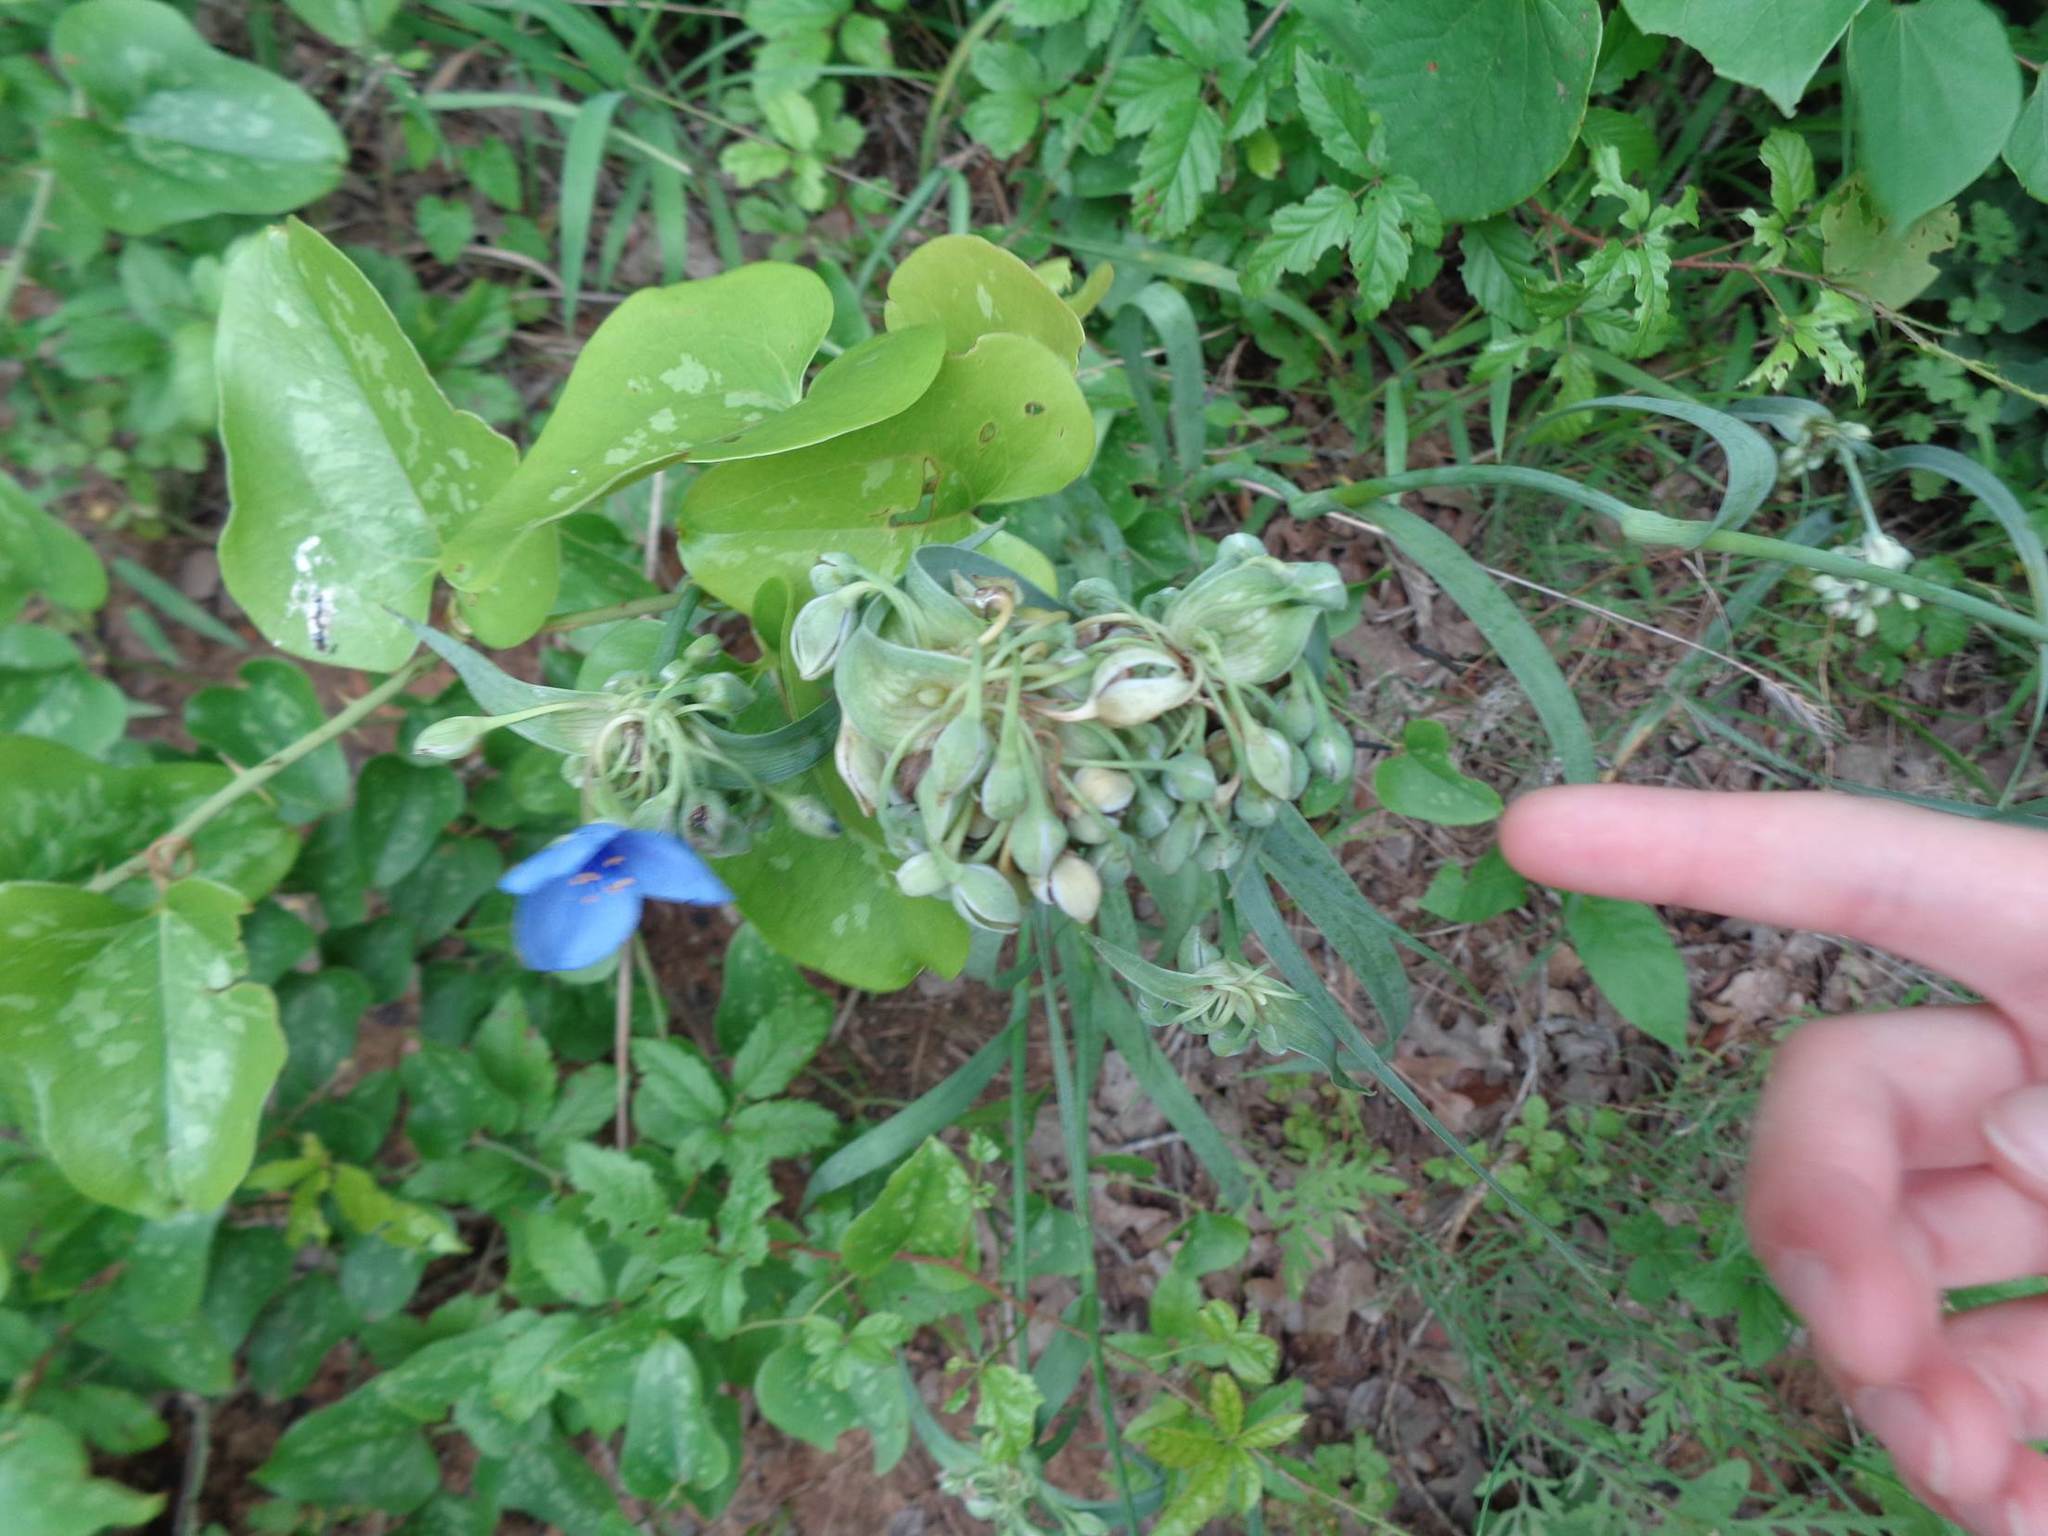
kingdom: Plantae
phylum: Tracheophyta
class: Liliopsida
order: Commelinales
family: Commelinaceae
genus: Tradescantia
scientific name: Tradescantia ohiensis
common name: Ohio spiderwort
